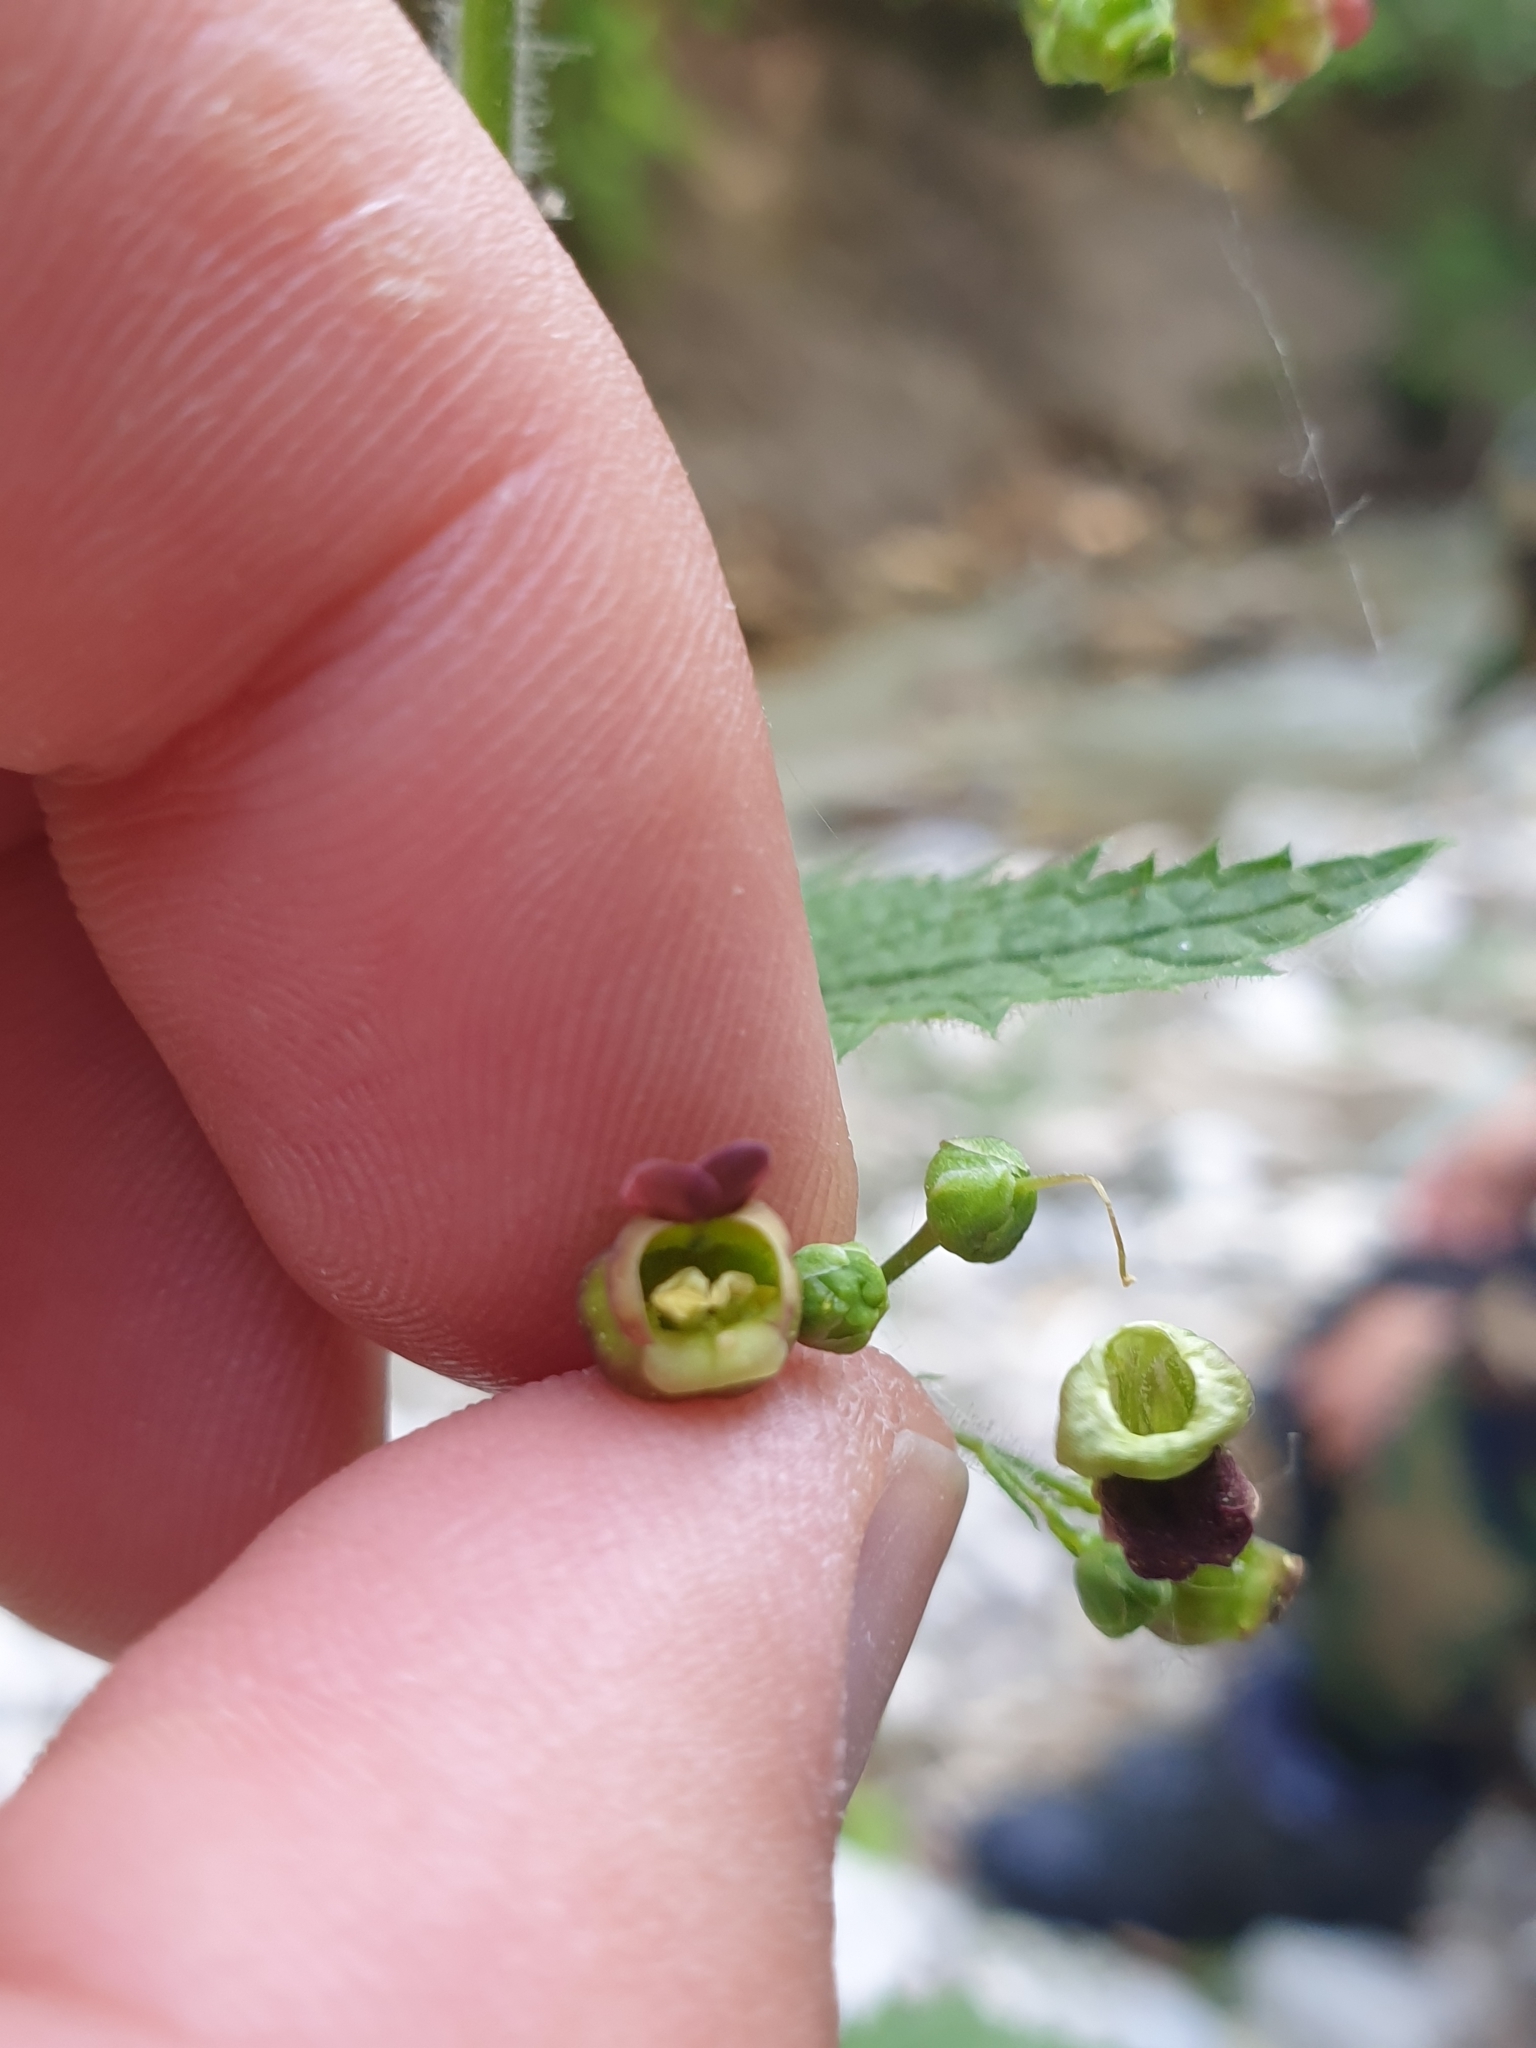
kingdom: Plantae
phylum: Tracheophyta
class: Magnoliopsida
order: Lamiales
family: Scrophulariaceae
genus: Scrophularia
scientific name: Scrophularia nodosa
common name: Common figwort
